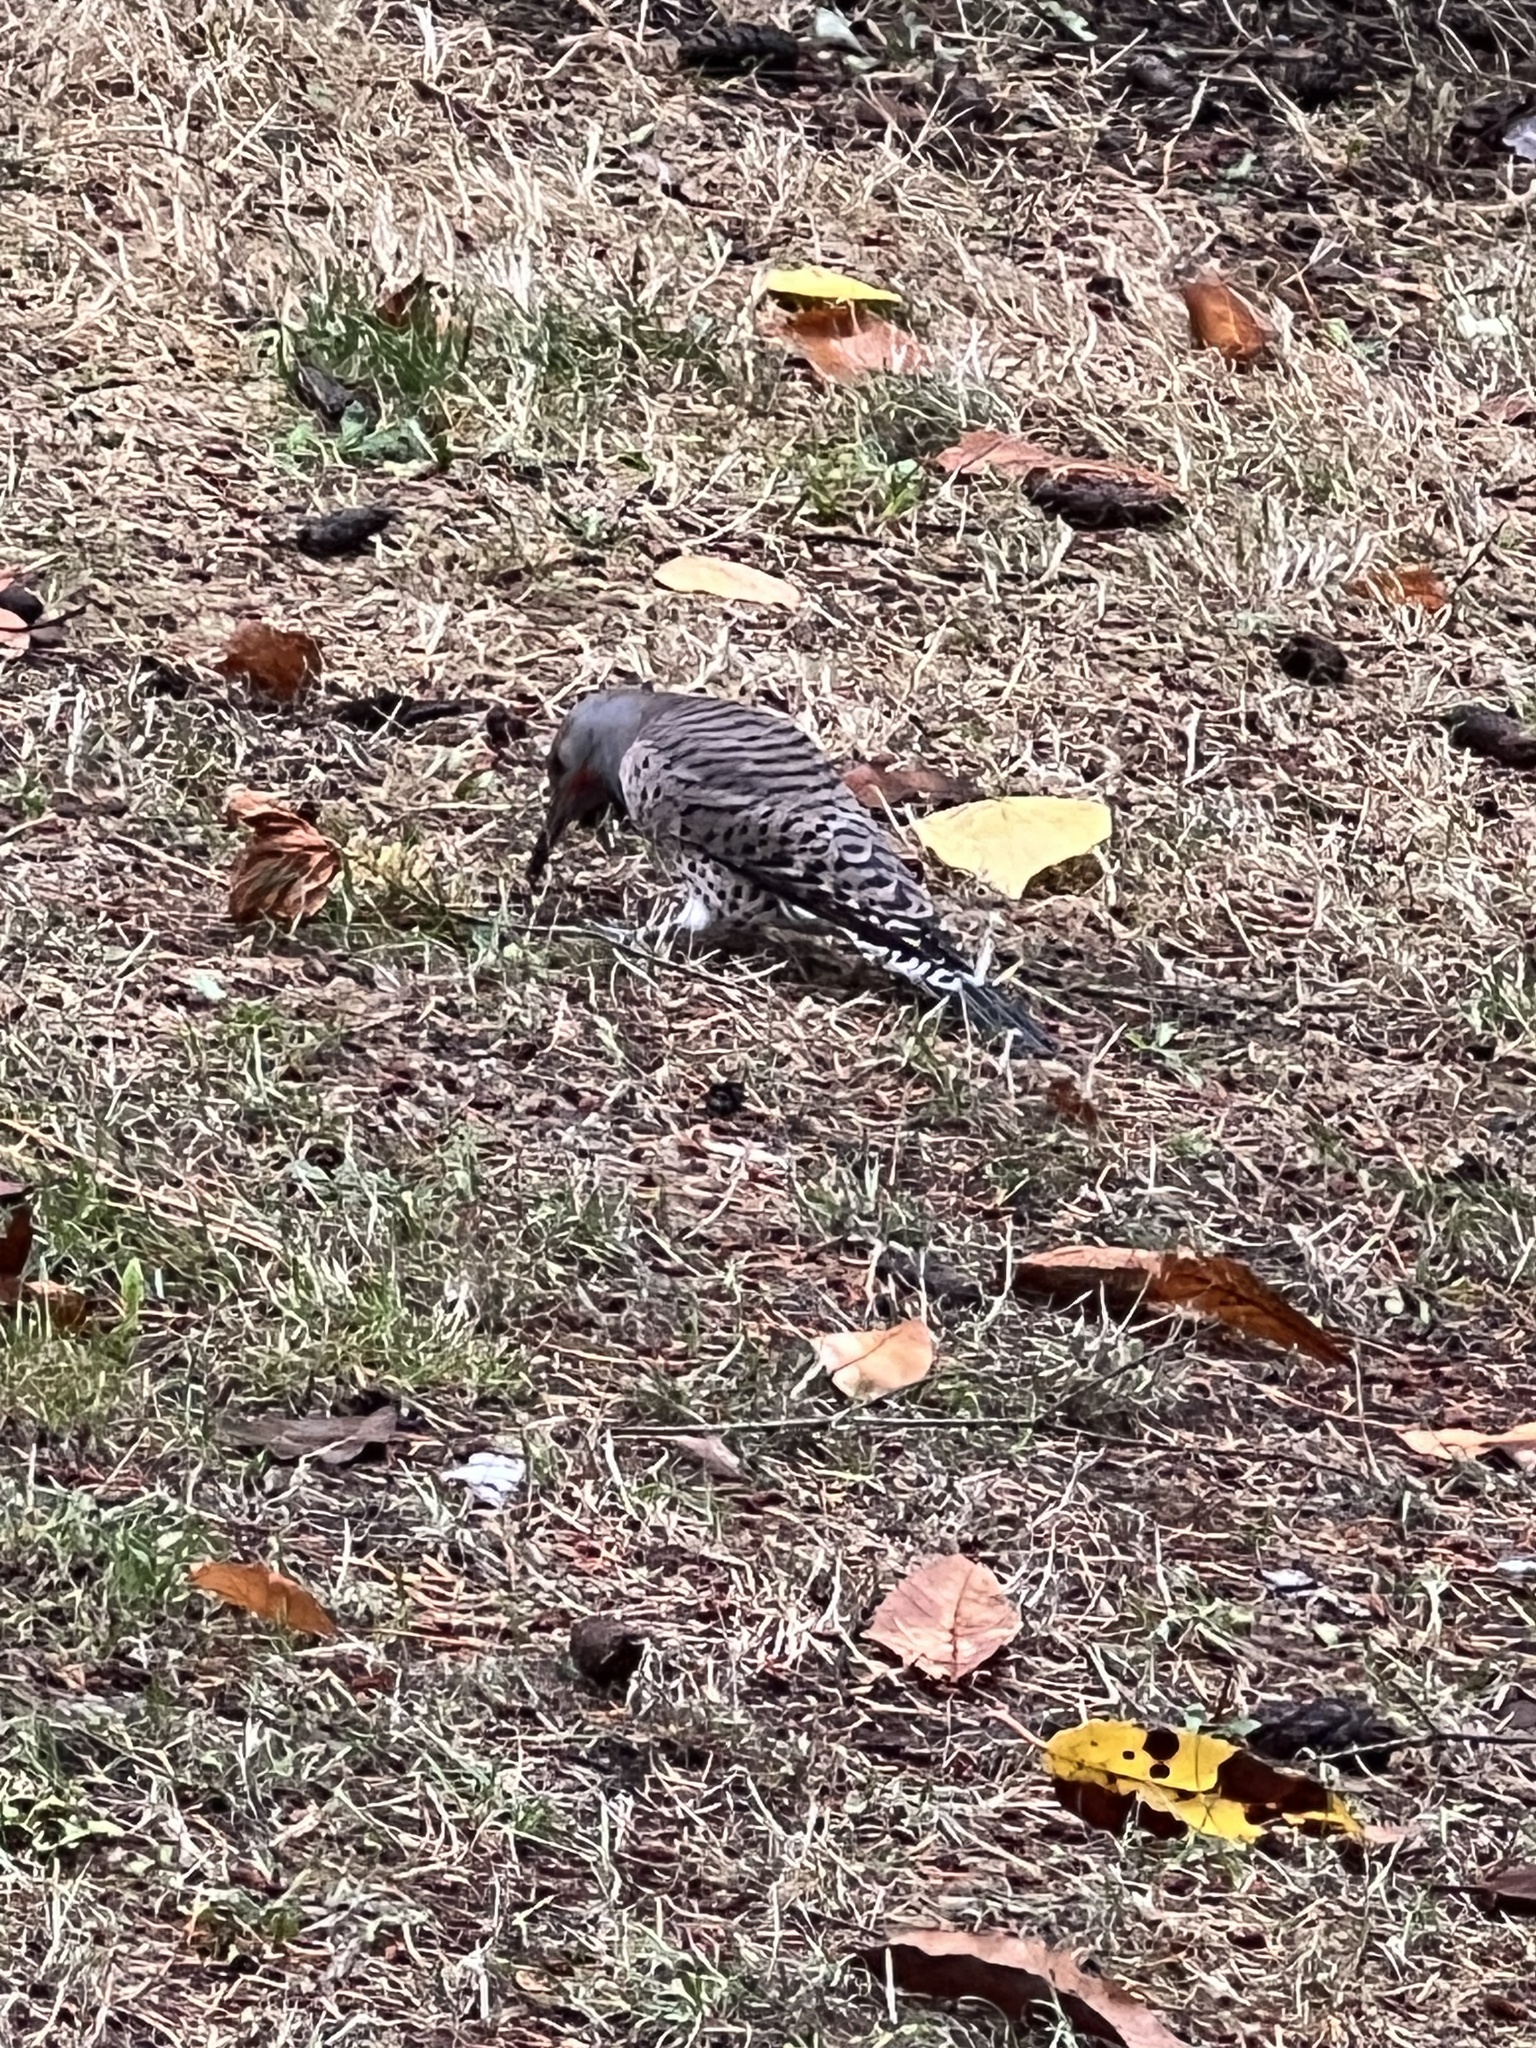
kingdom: Animalia
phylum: Chordata
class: Aves
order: Piciformes
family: Picidae
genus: Colaptes
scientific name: Colaptes auratus
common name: Northern flicker
